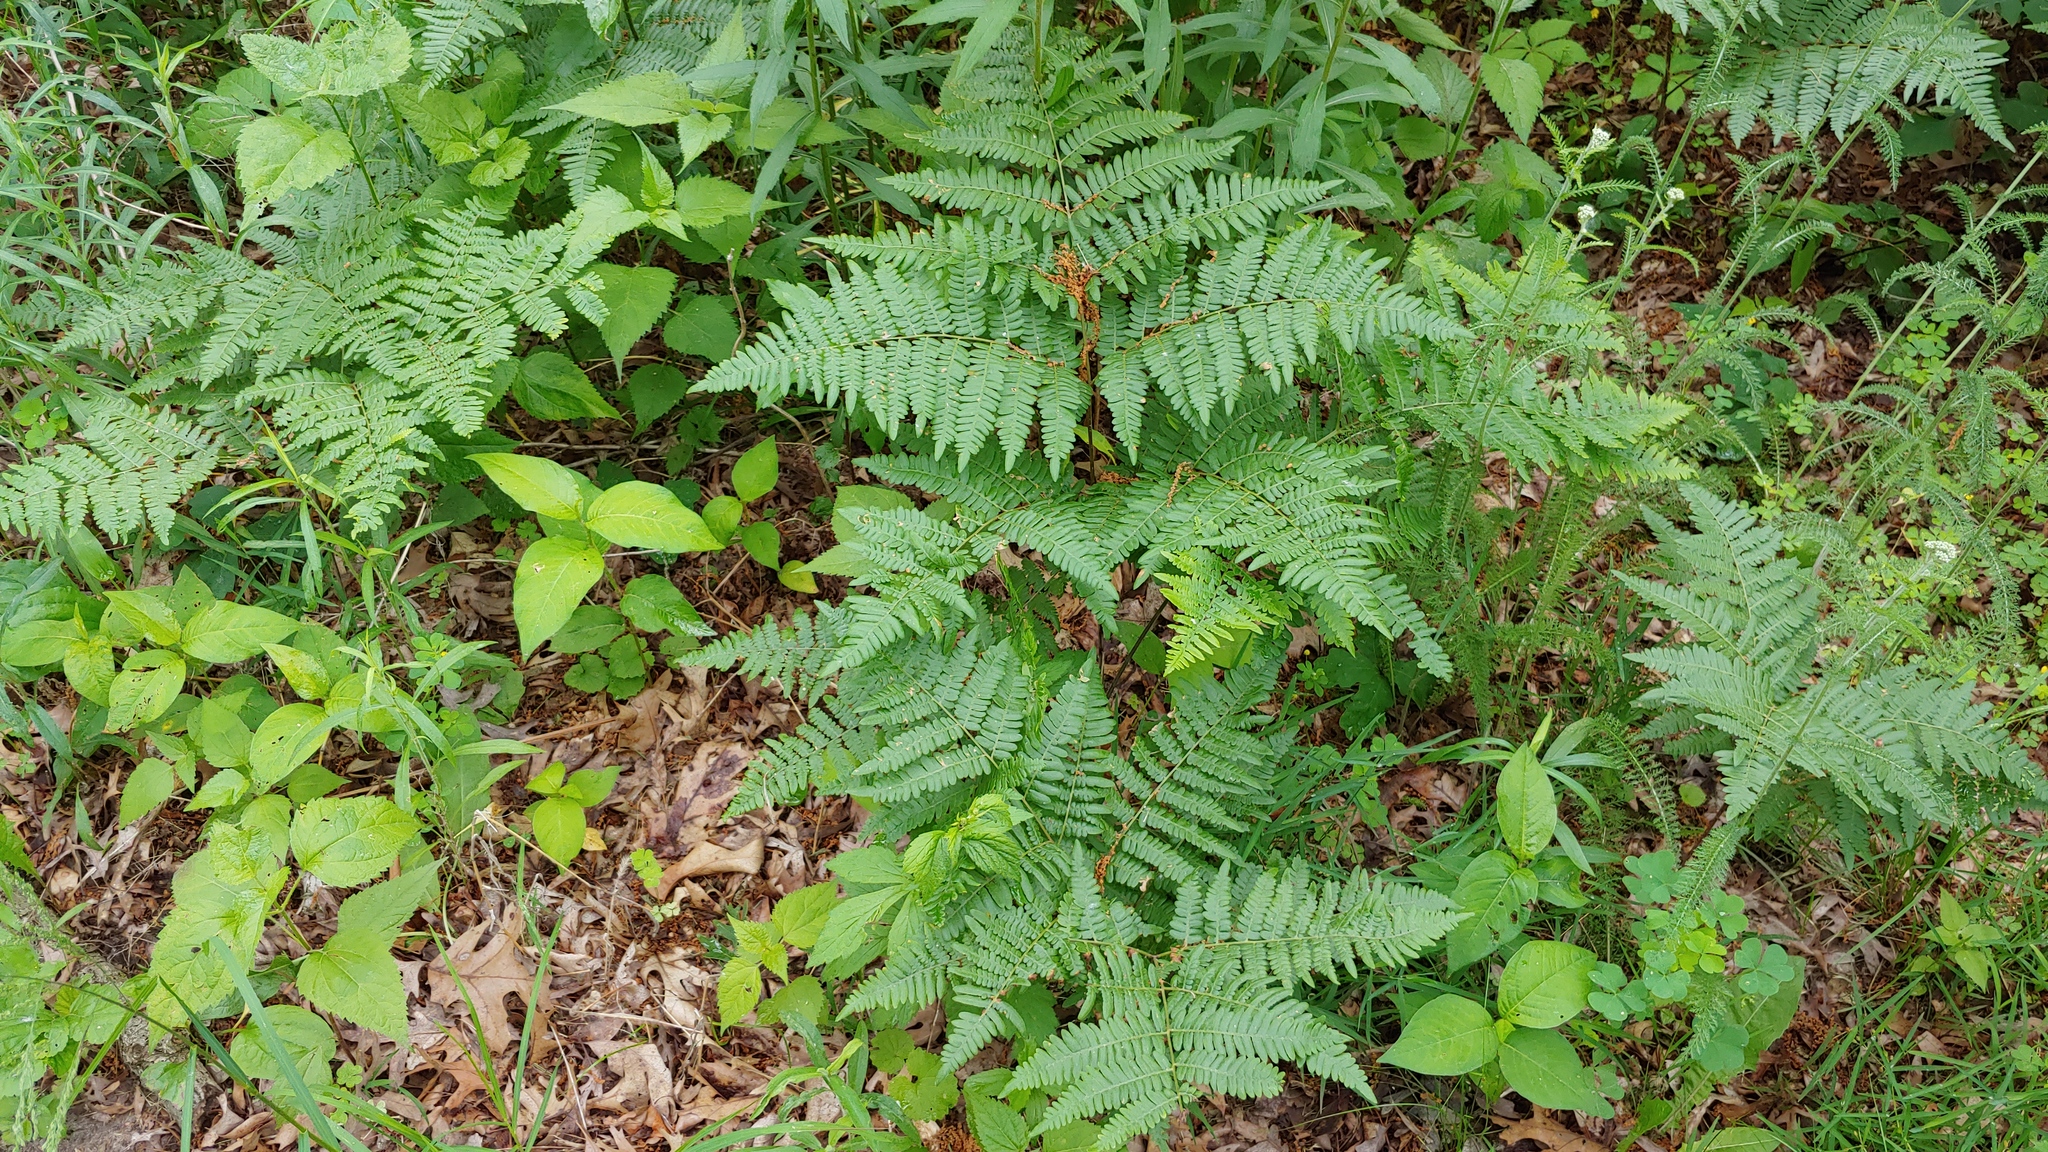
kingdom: Plantae
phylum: Tracheophyta
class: Polypodiopsida
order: Polypodiales
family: Dennstaedtiaceae
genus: Pteridium
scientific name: Pteridium aquilinum
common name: Bracken
